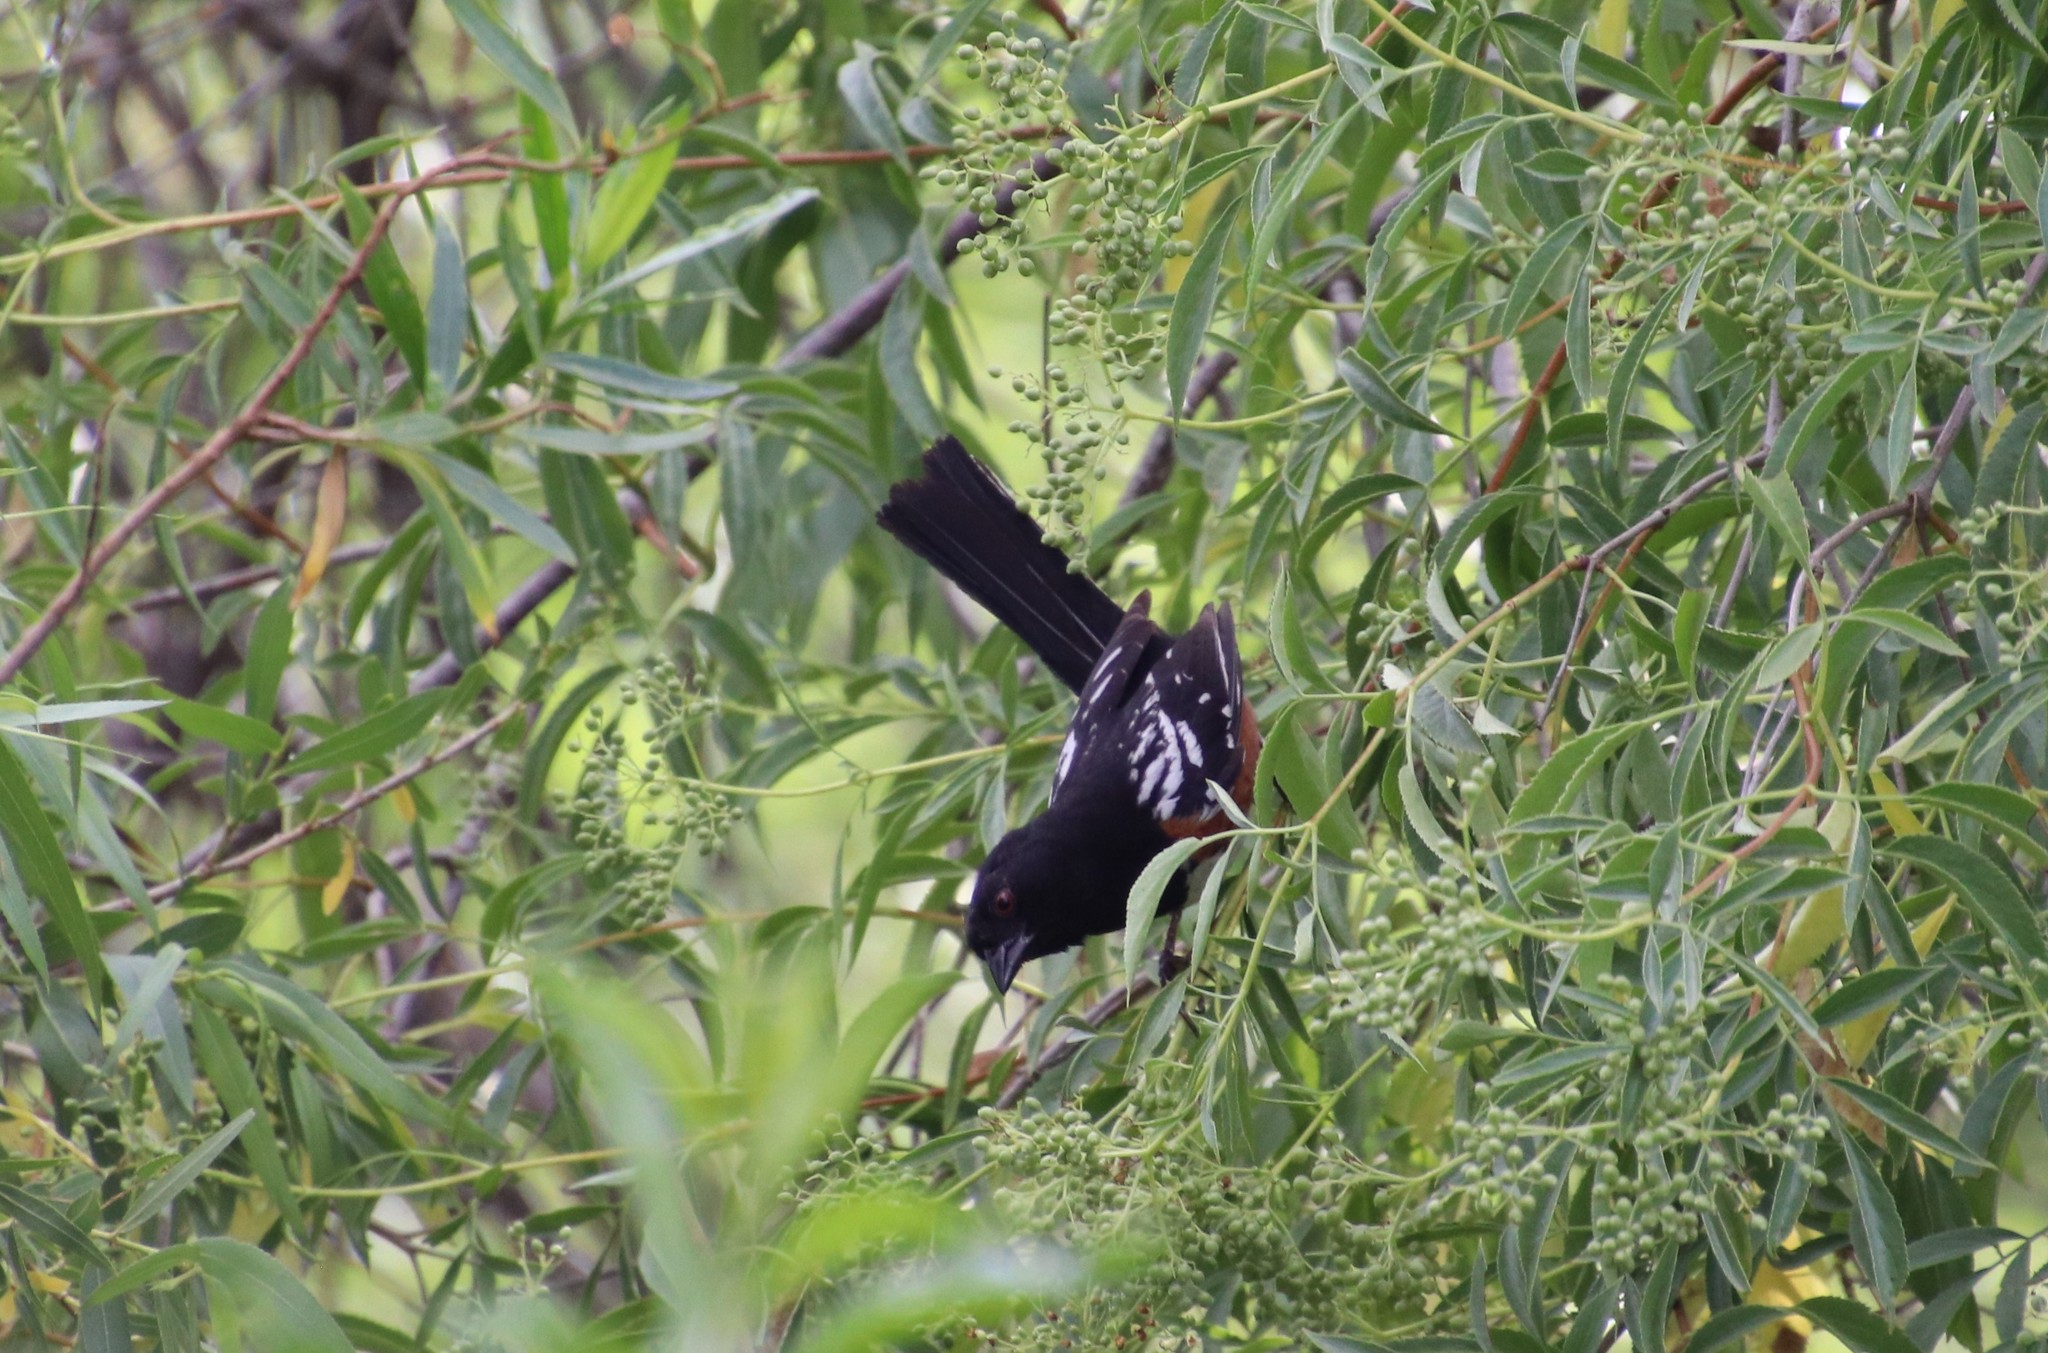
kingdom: Animalia
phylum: Chordata
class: Aves
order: Passeriformes
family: Passerellidae
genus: Pipilo
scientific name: Pipilo maculatus
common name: Spotted towhee
